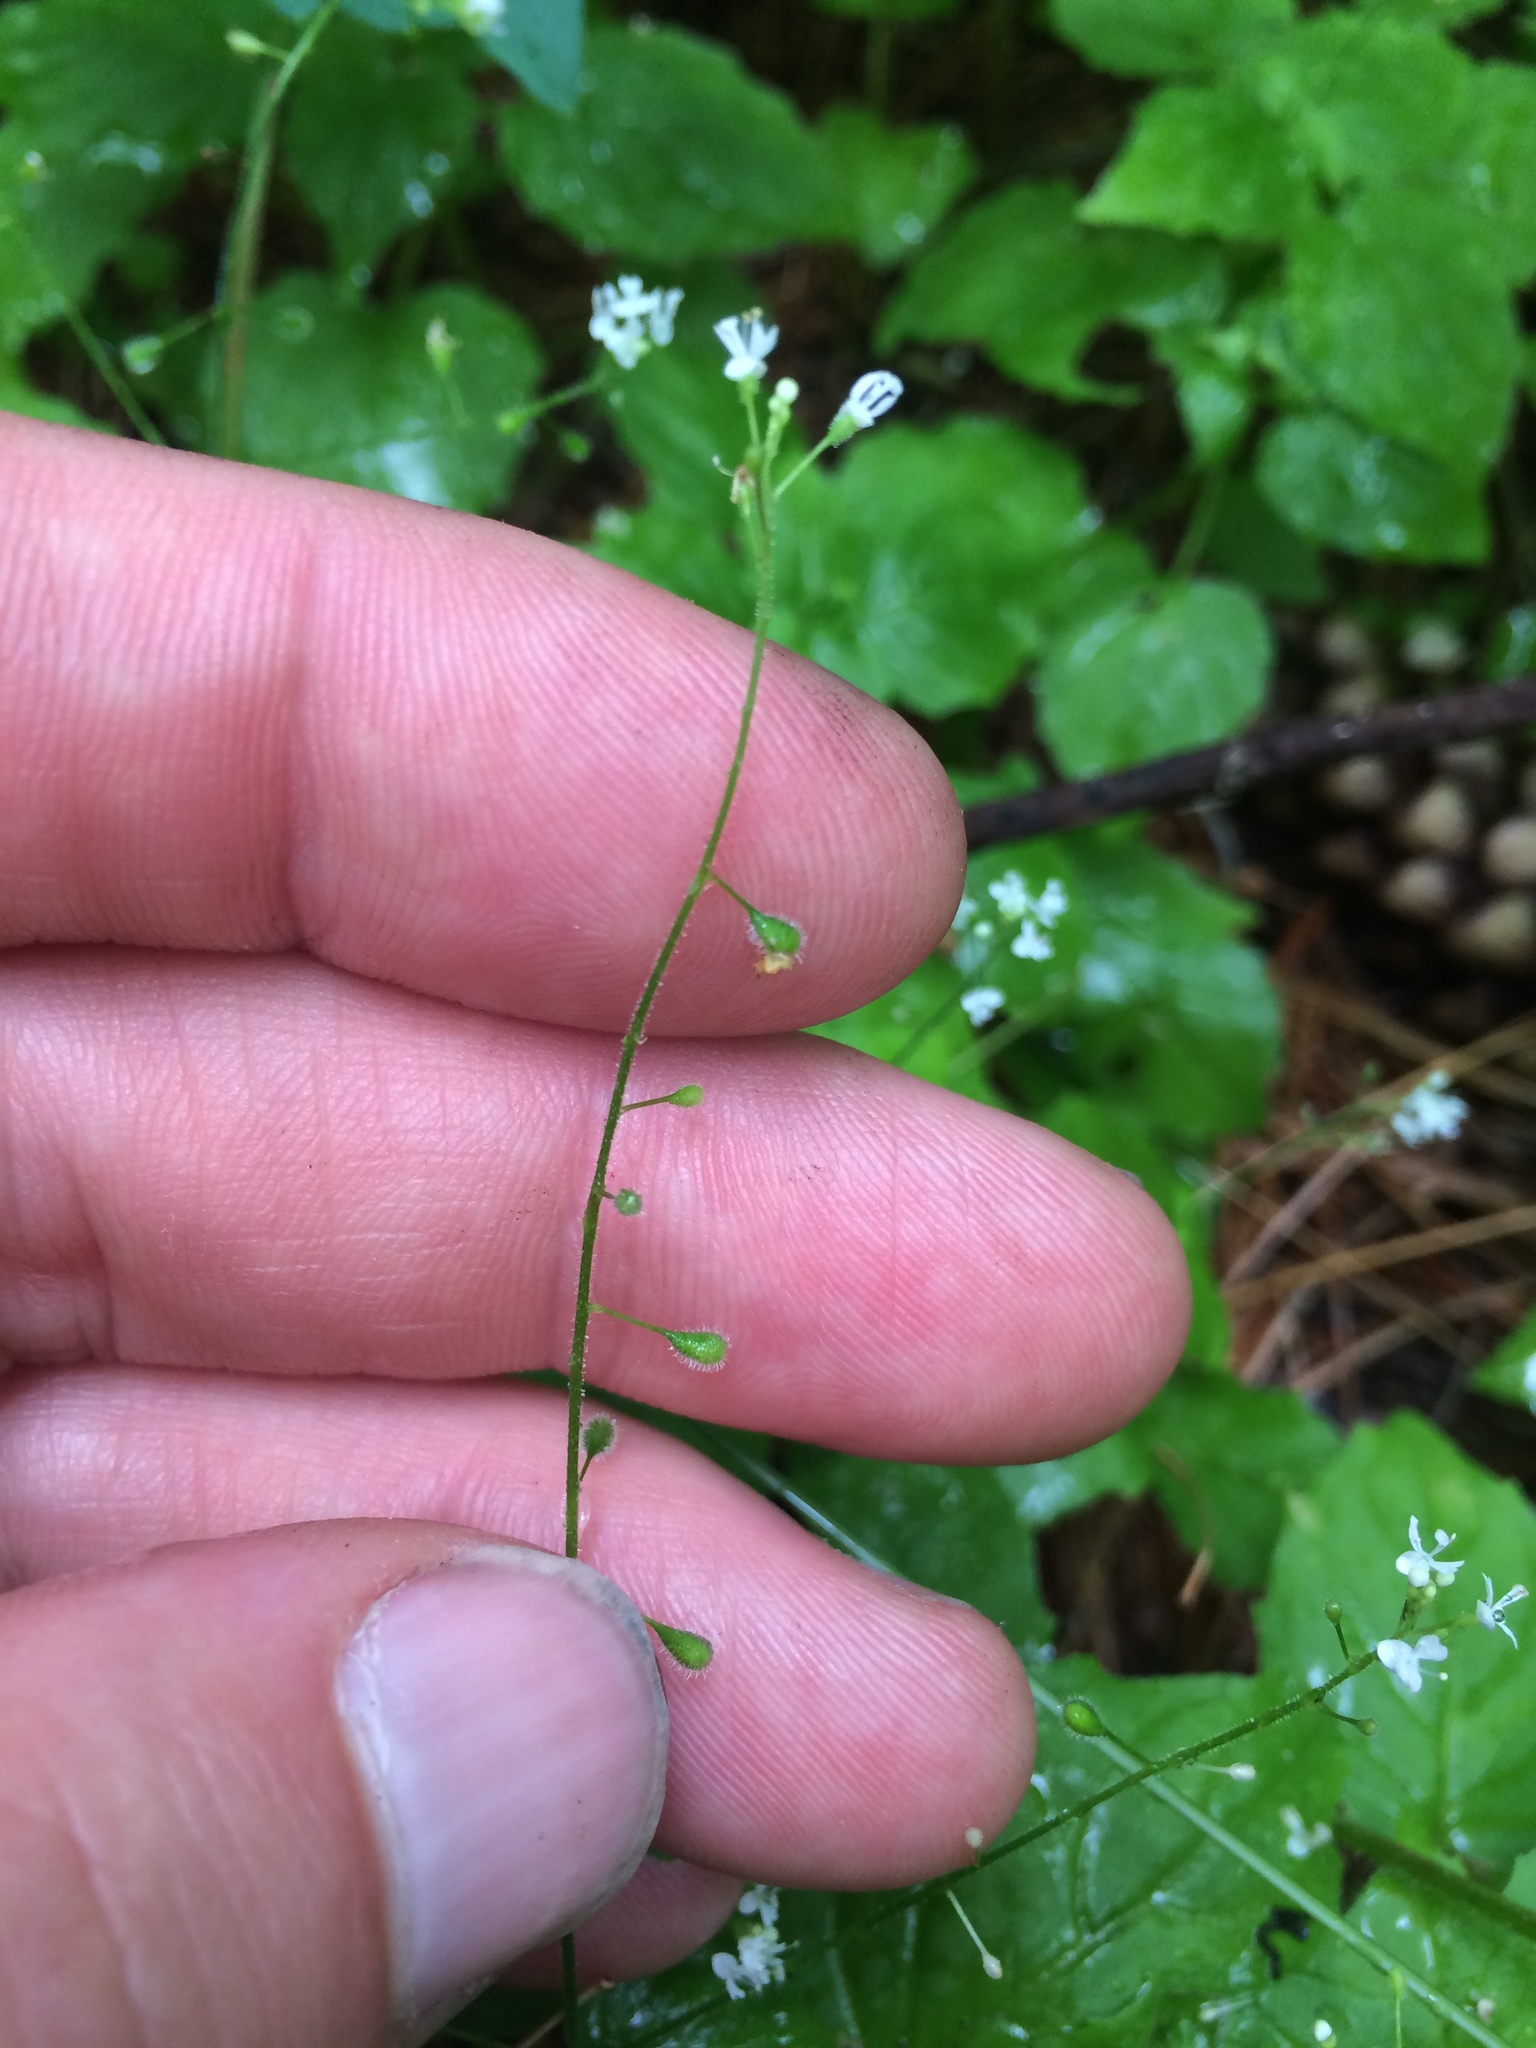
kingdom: Plantae
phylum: Tracheophyta
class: Magnoliopsida
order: Myrtales
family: Onagraceae
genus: Circaea
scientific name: Circaea alpina
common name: Alpine enchanter's-nightshade
